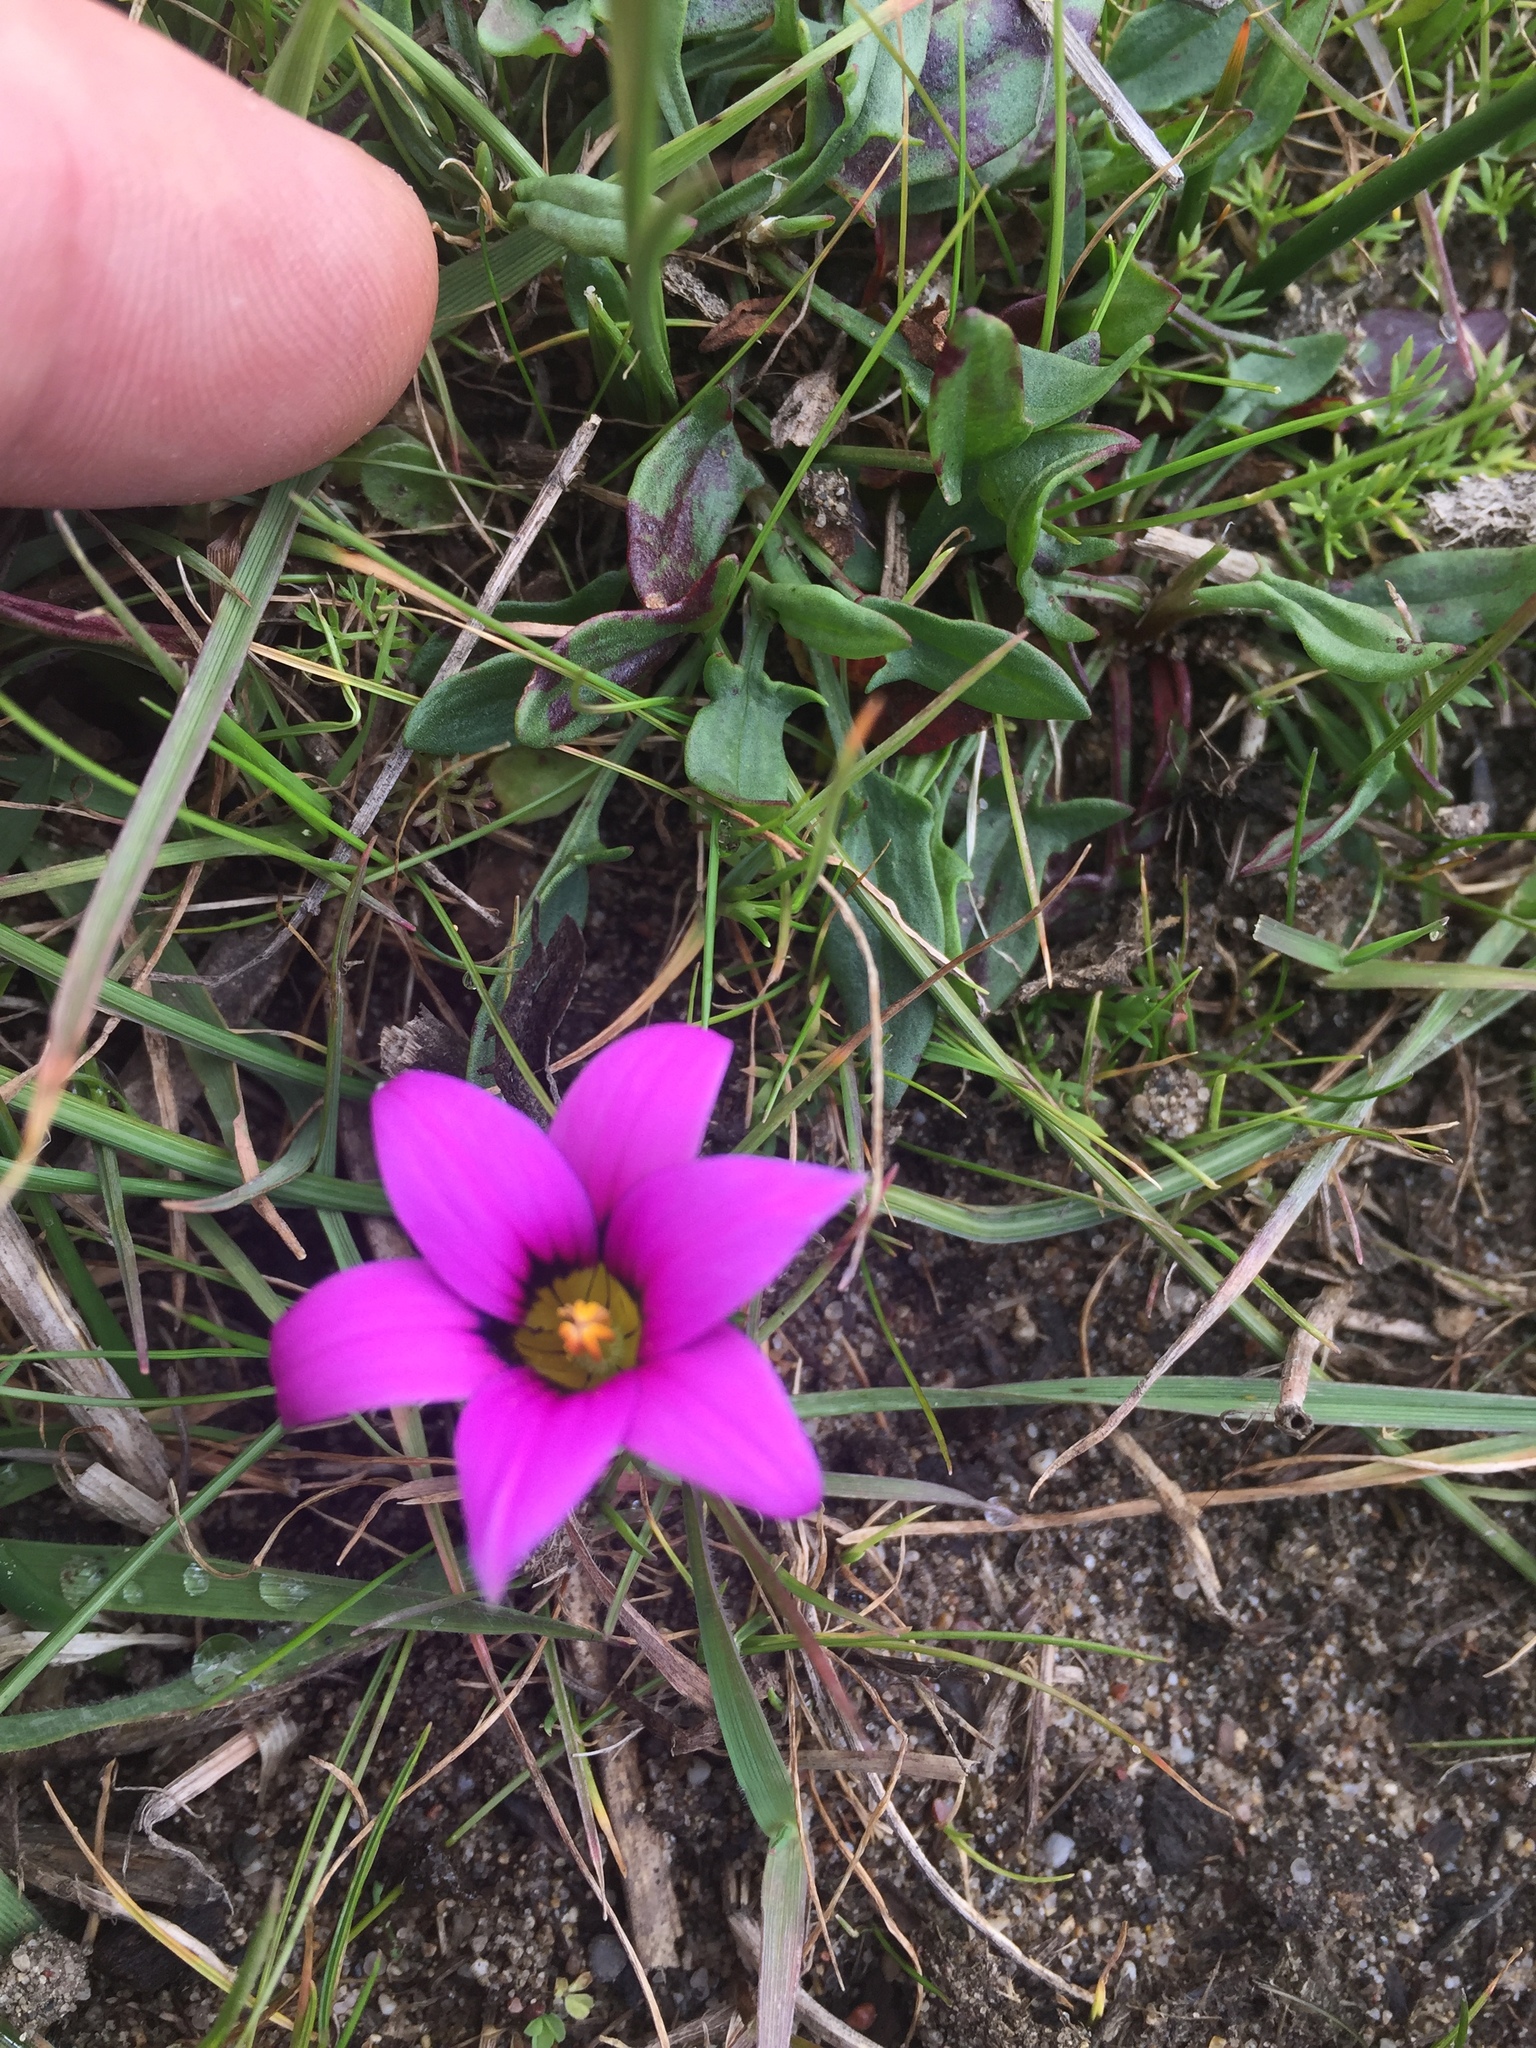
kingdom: Plantae
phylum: Tracheophyta
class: Liliopsida
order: Asparagales
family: Iridaceae
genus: Romulea
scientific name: Romulea rosea
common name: Oniongrass
